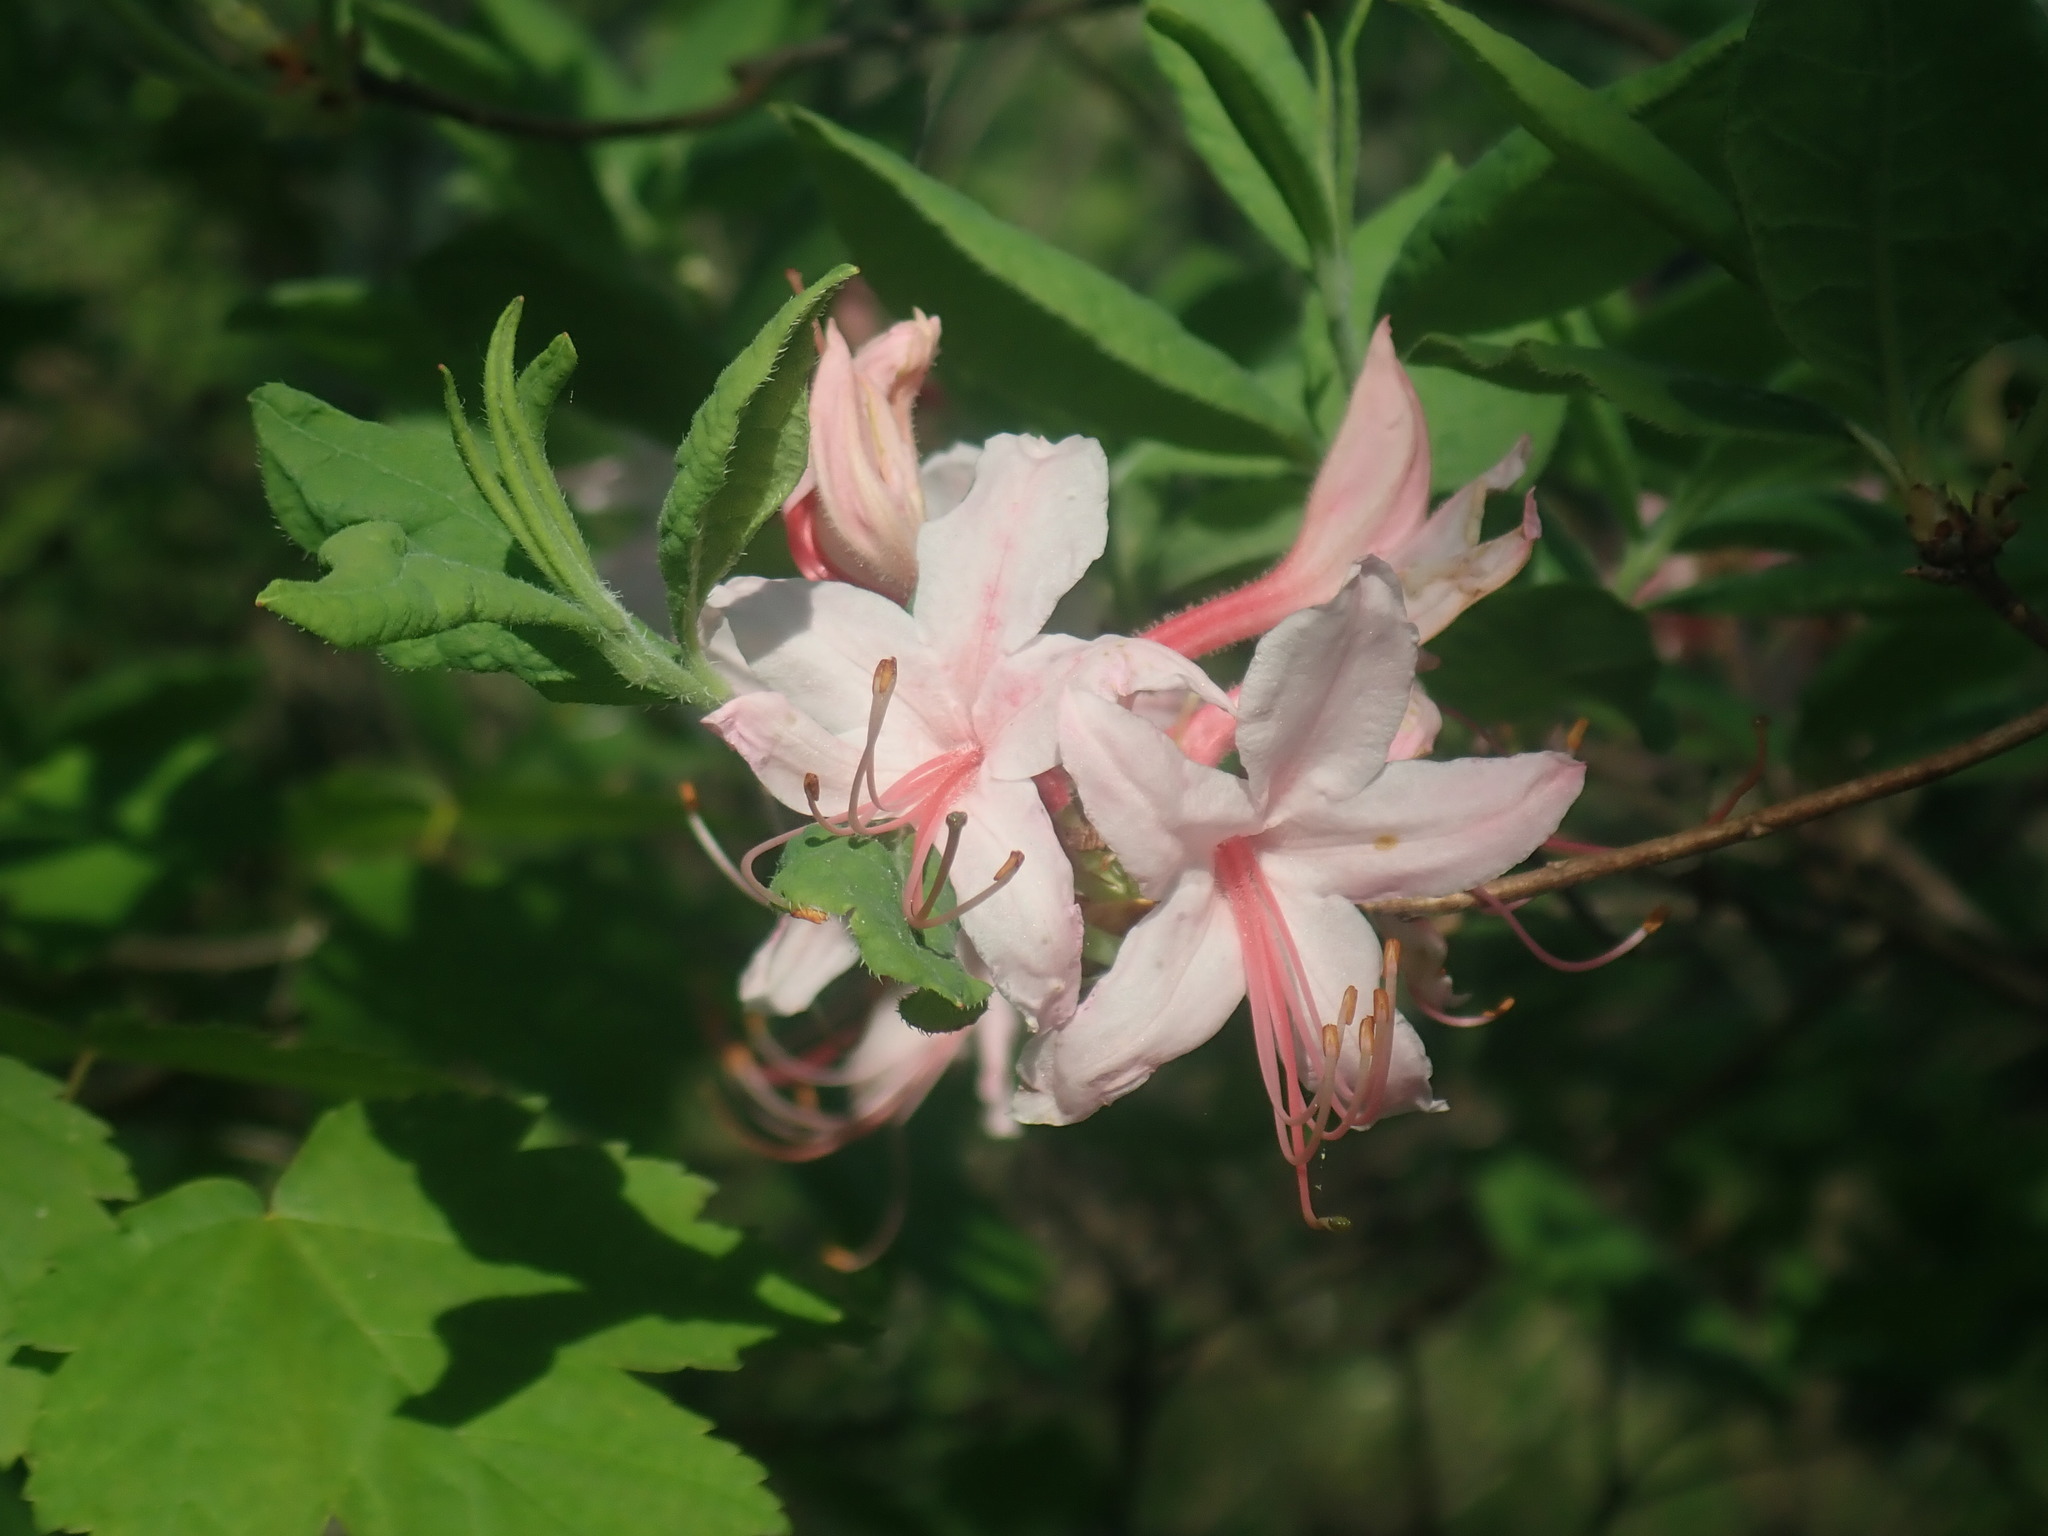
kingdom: Plantae
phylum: Tracheophyta
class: Magnoliopsida
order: Ericales
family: Ericaceae
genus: Rhododendron
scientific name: Rhododendron roseum
